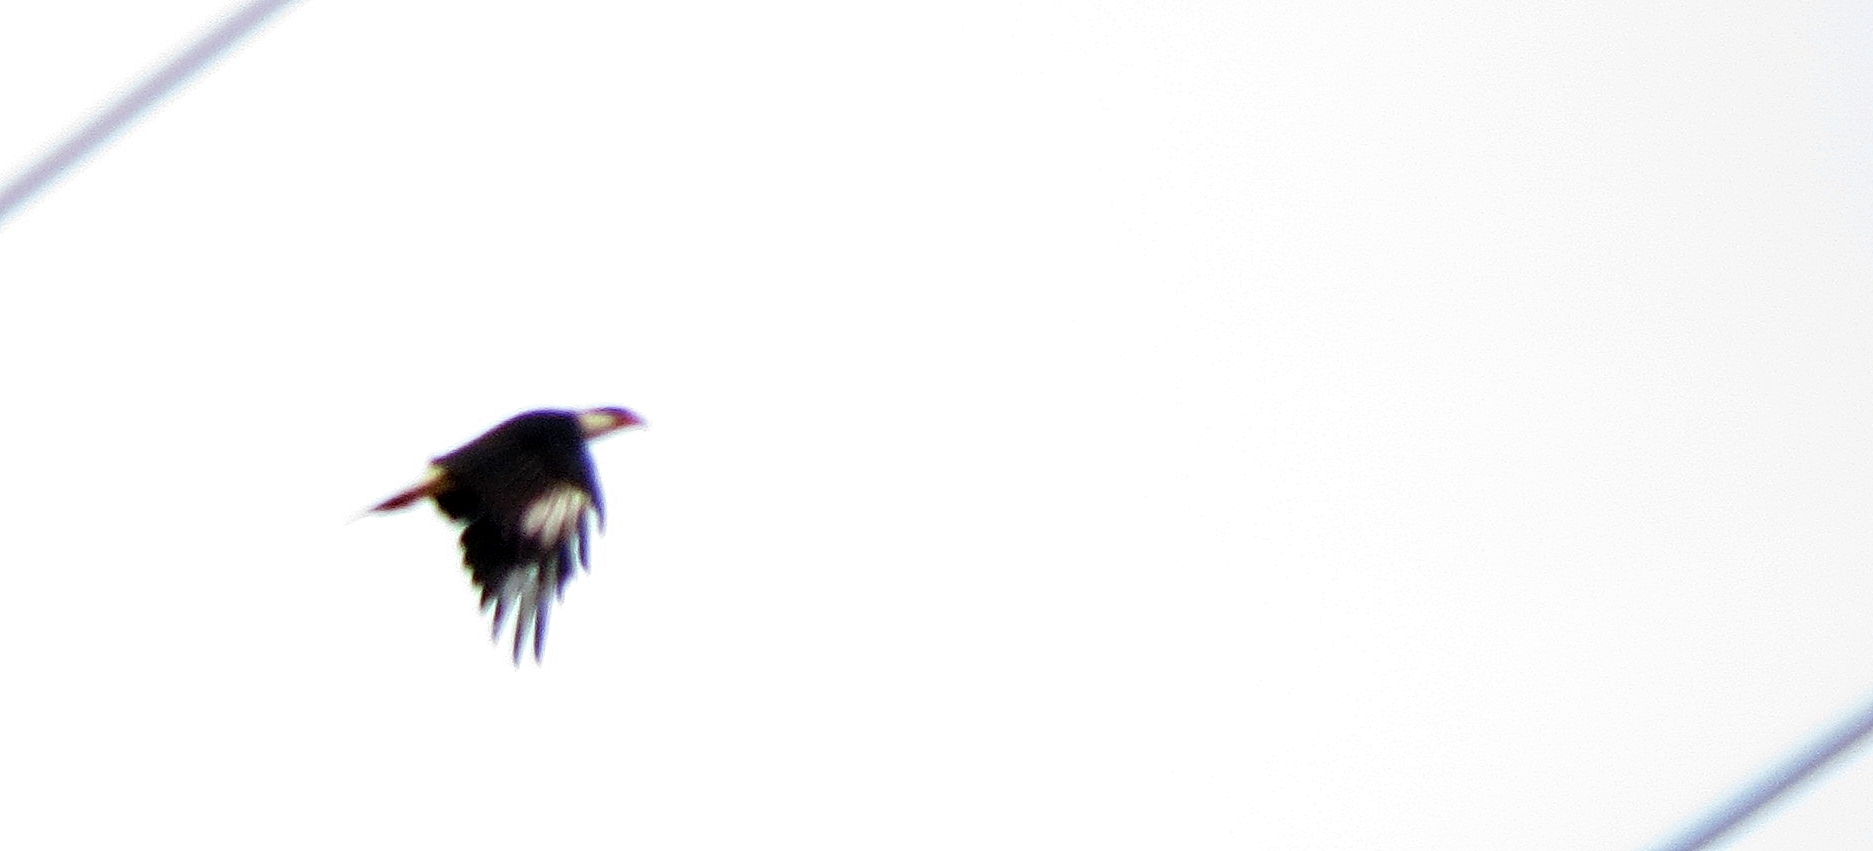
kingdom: Animalia
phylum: Chordata
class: Aves
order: Falconiformes
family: Falconidae
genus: Caracara
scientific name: Caracara plancus
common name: Southern caracara
